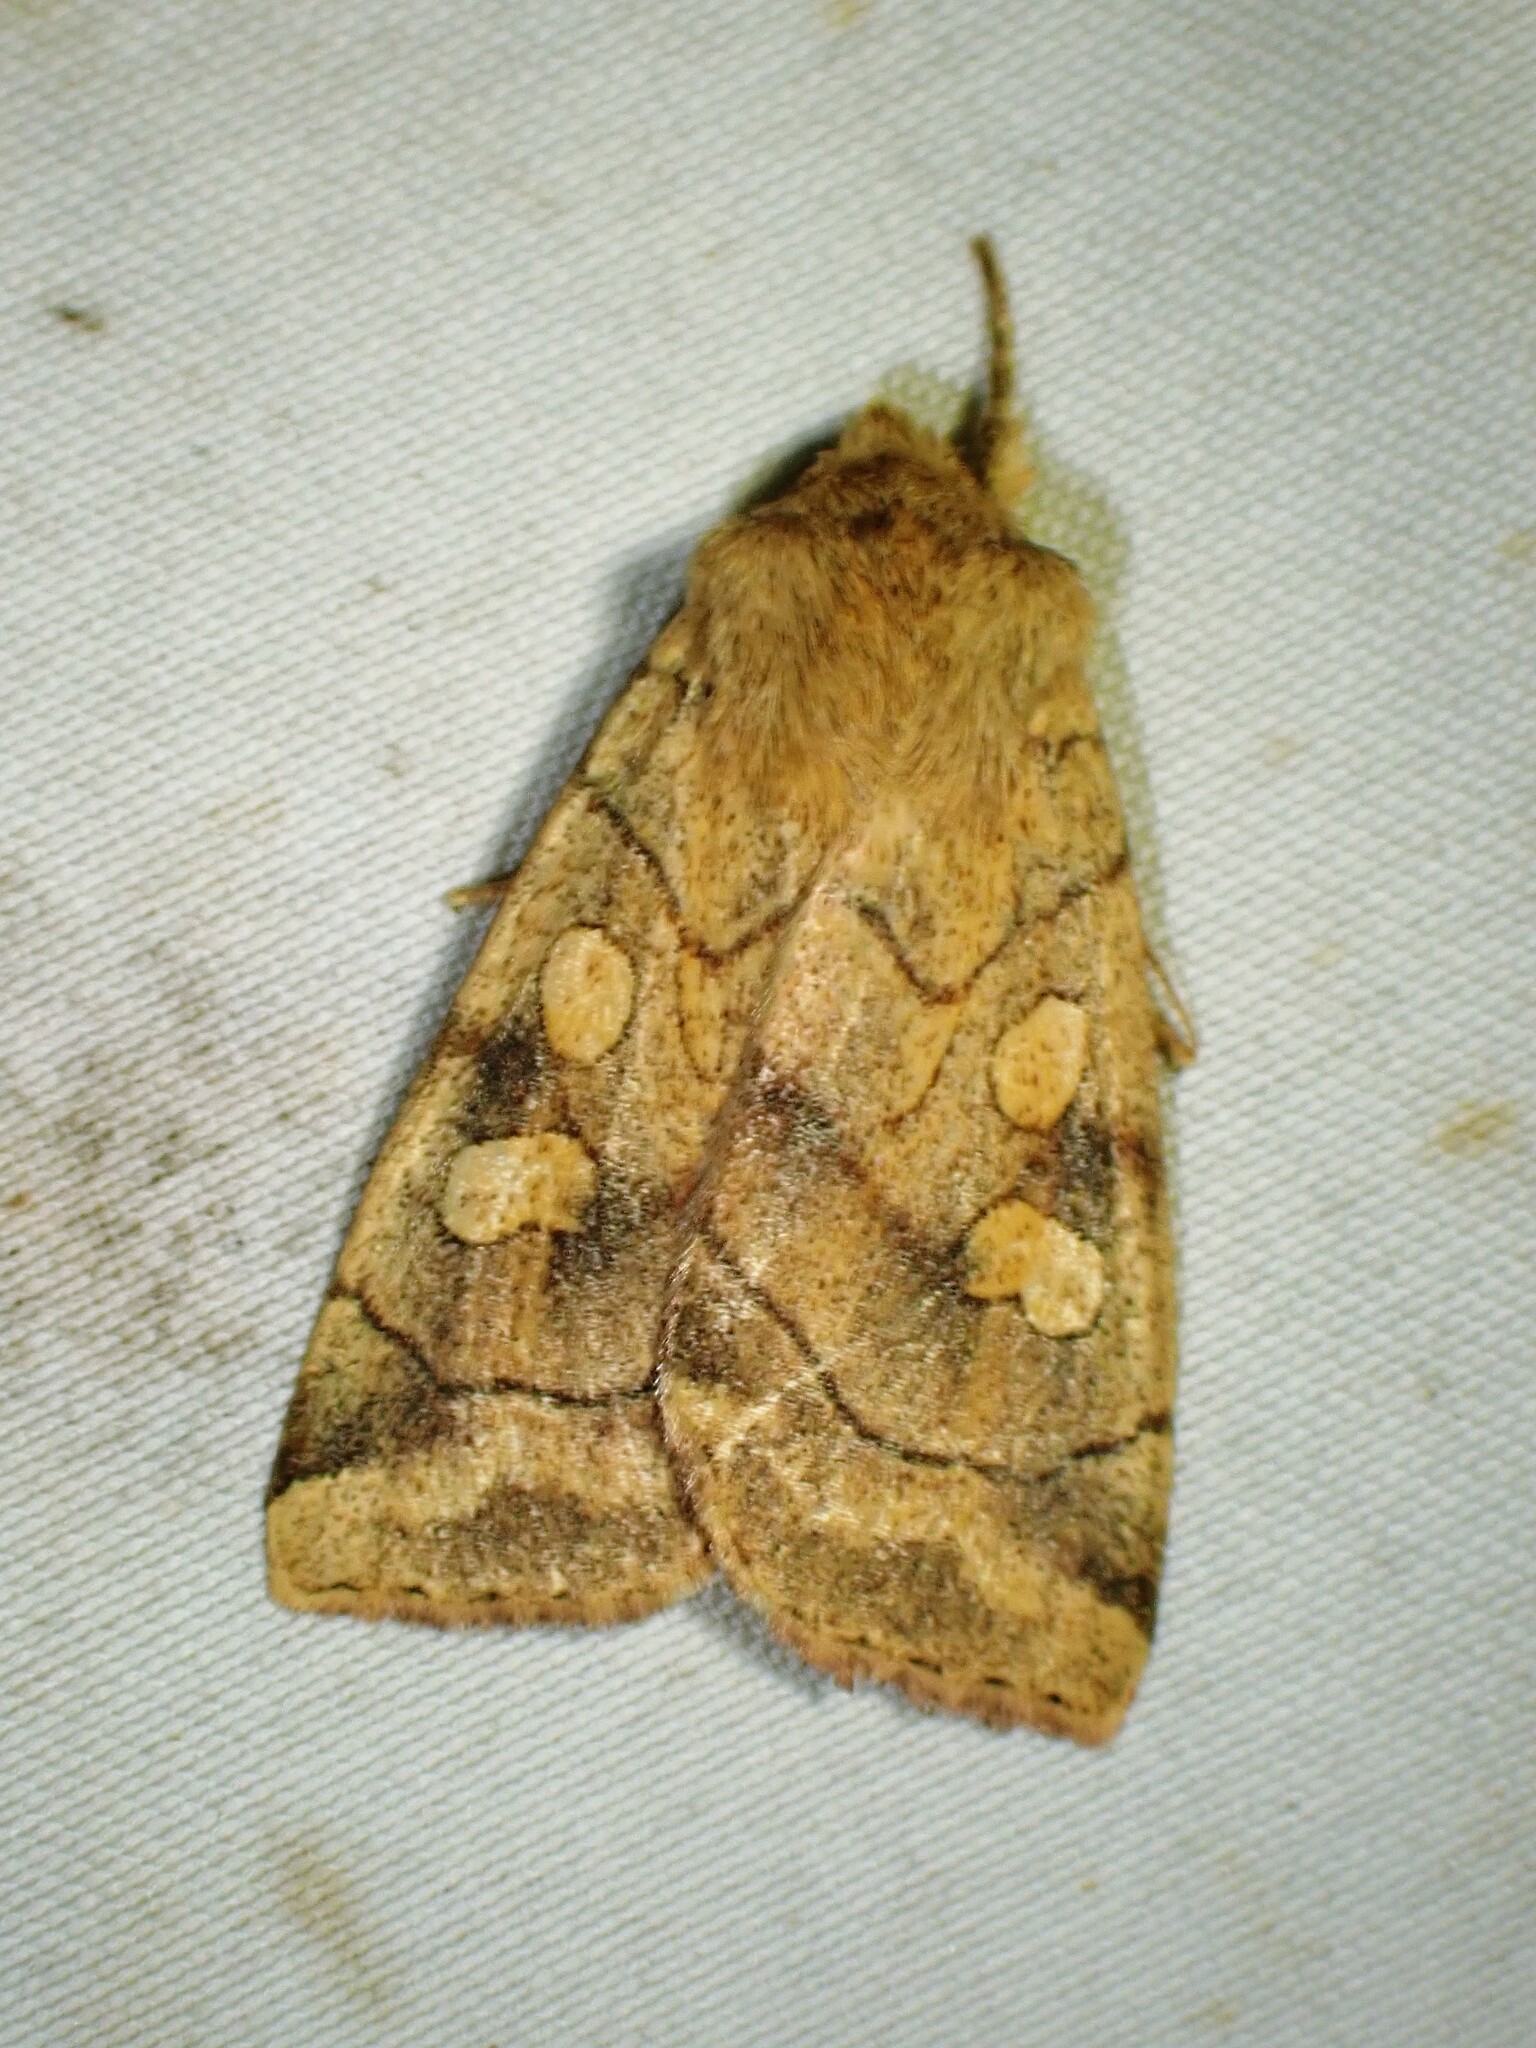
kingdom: Animalia
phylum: Arthropoda
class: Insecta
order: Lepidoptera
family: Noctuidae
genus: Enargia
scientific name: Enargia decolor
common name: Aspen twoleaf tier moth
